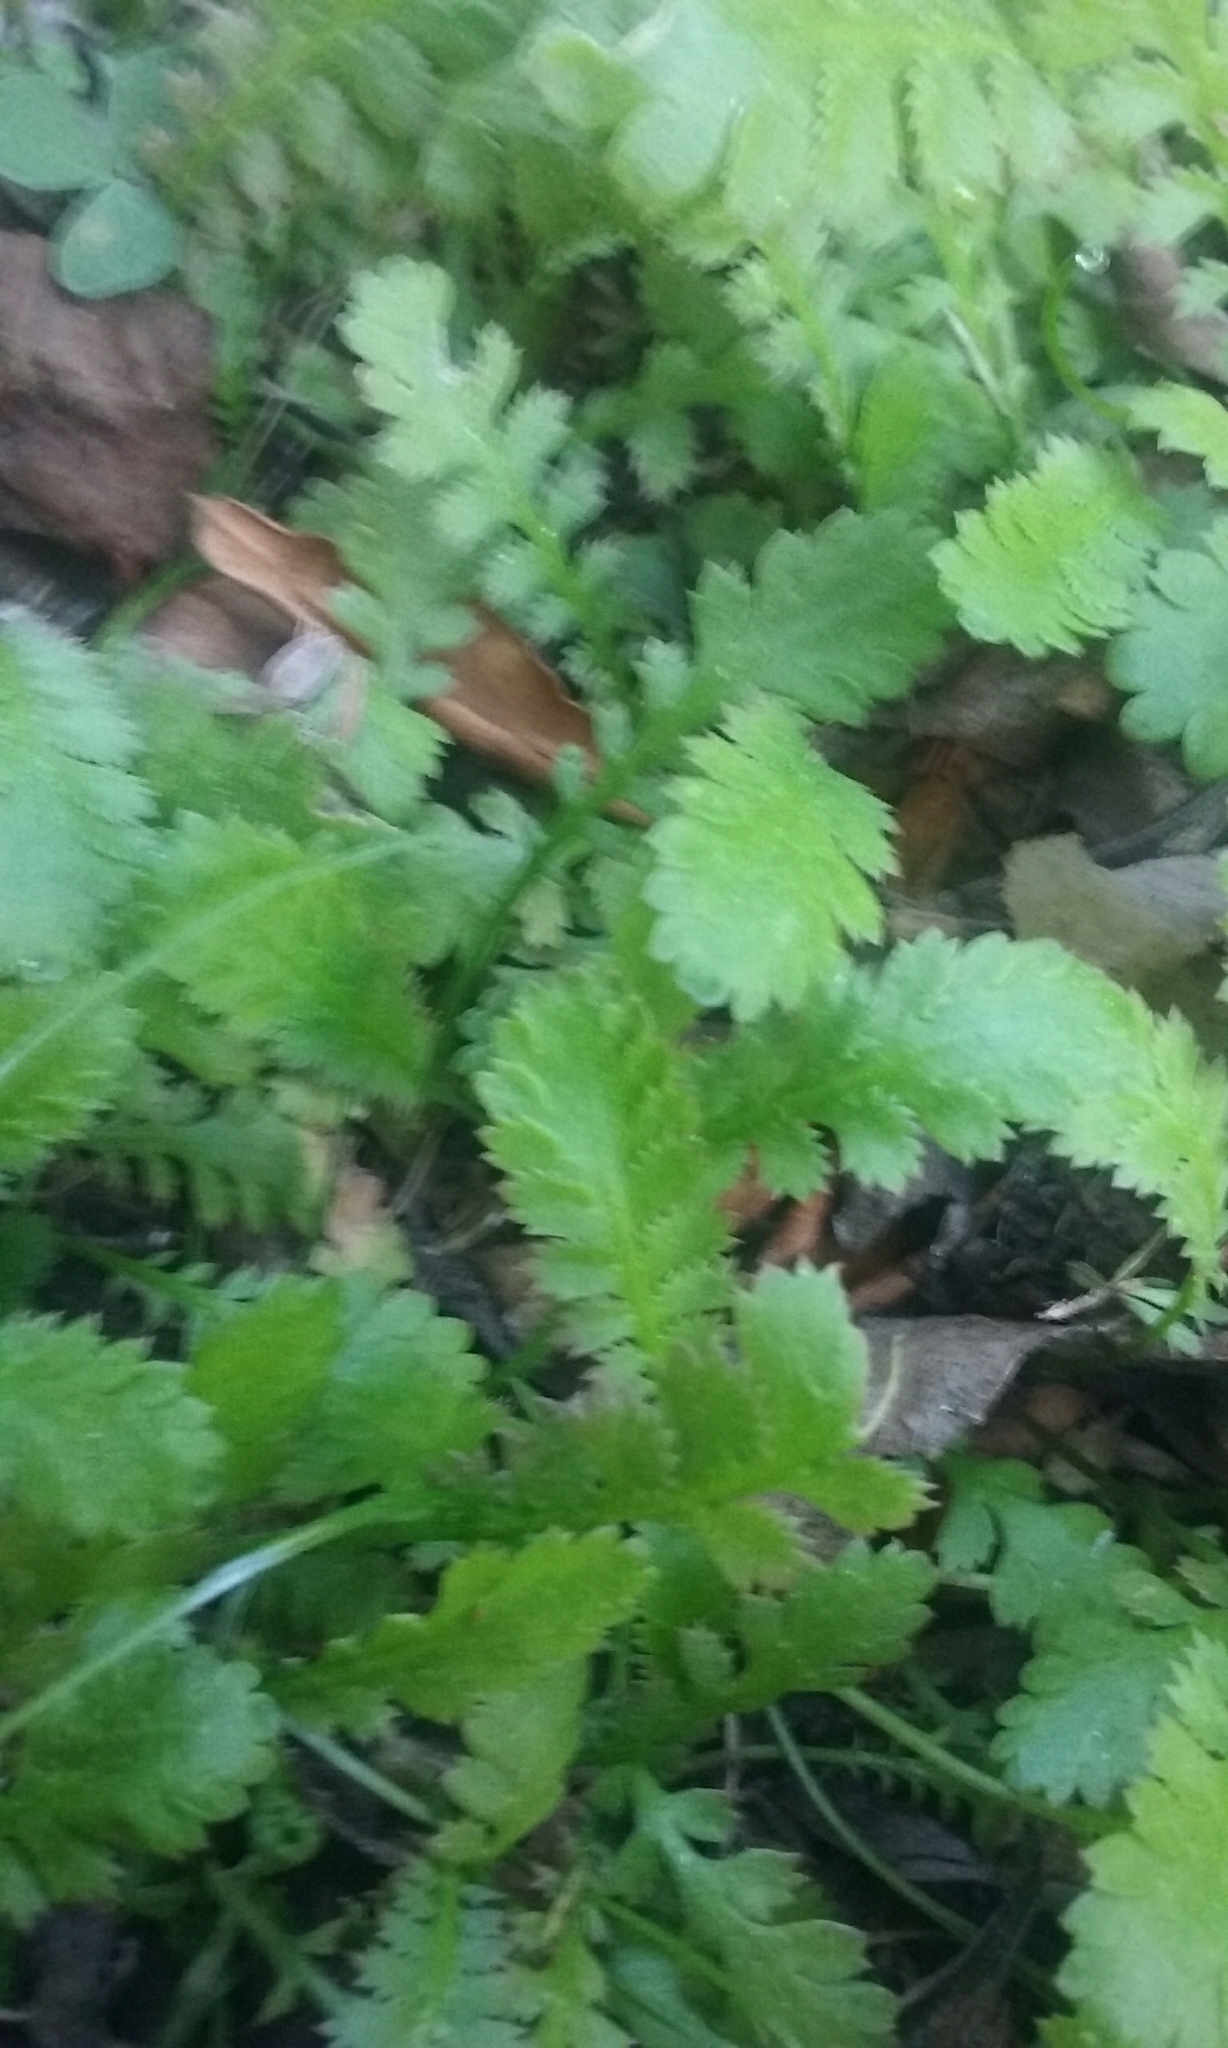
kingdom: Plantae
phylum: Tracheophyta
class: Magnoliopsida
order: Asterales
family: Asteraceae
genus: Leptinella
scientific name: Leptinella dioica
